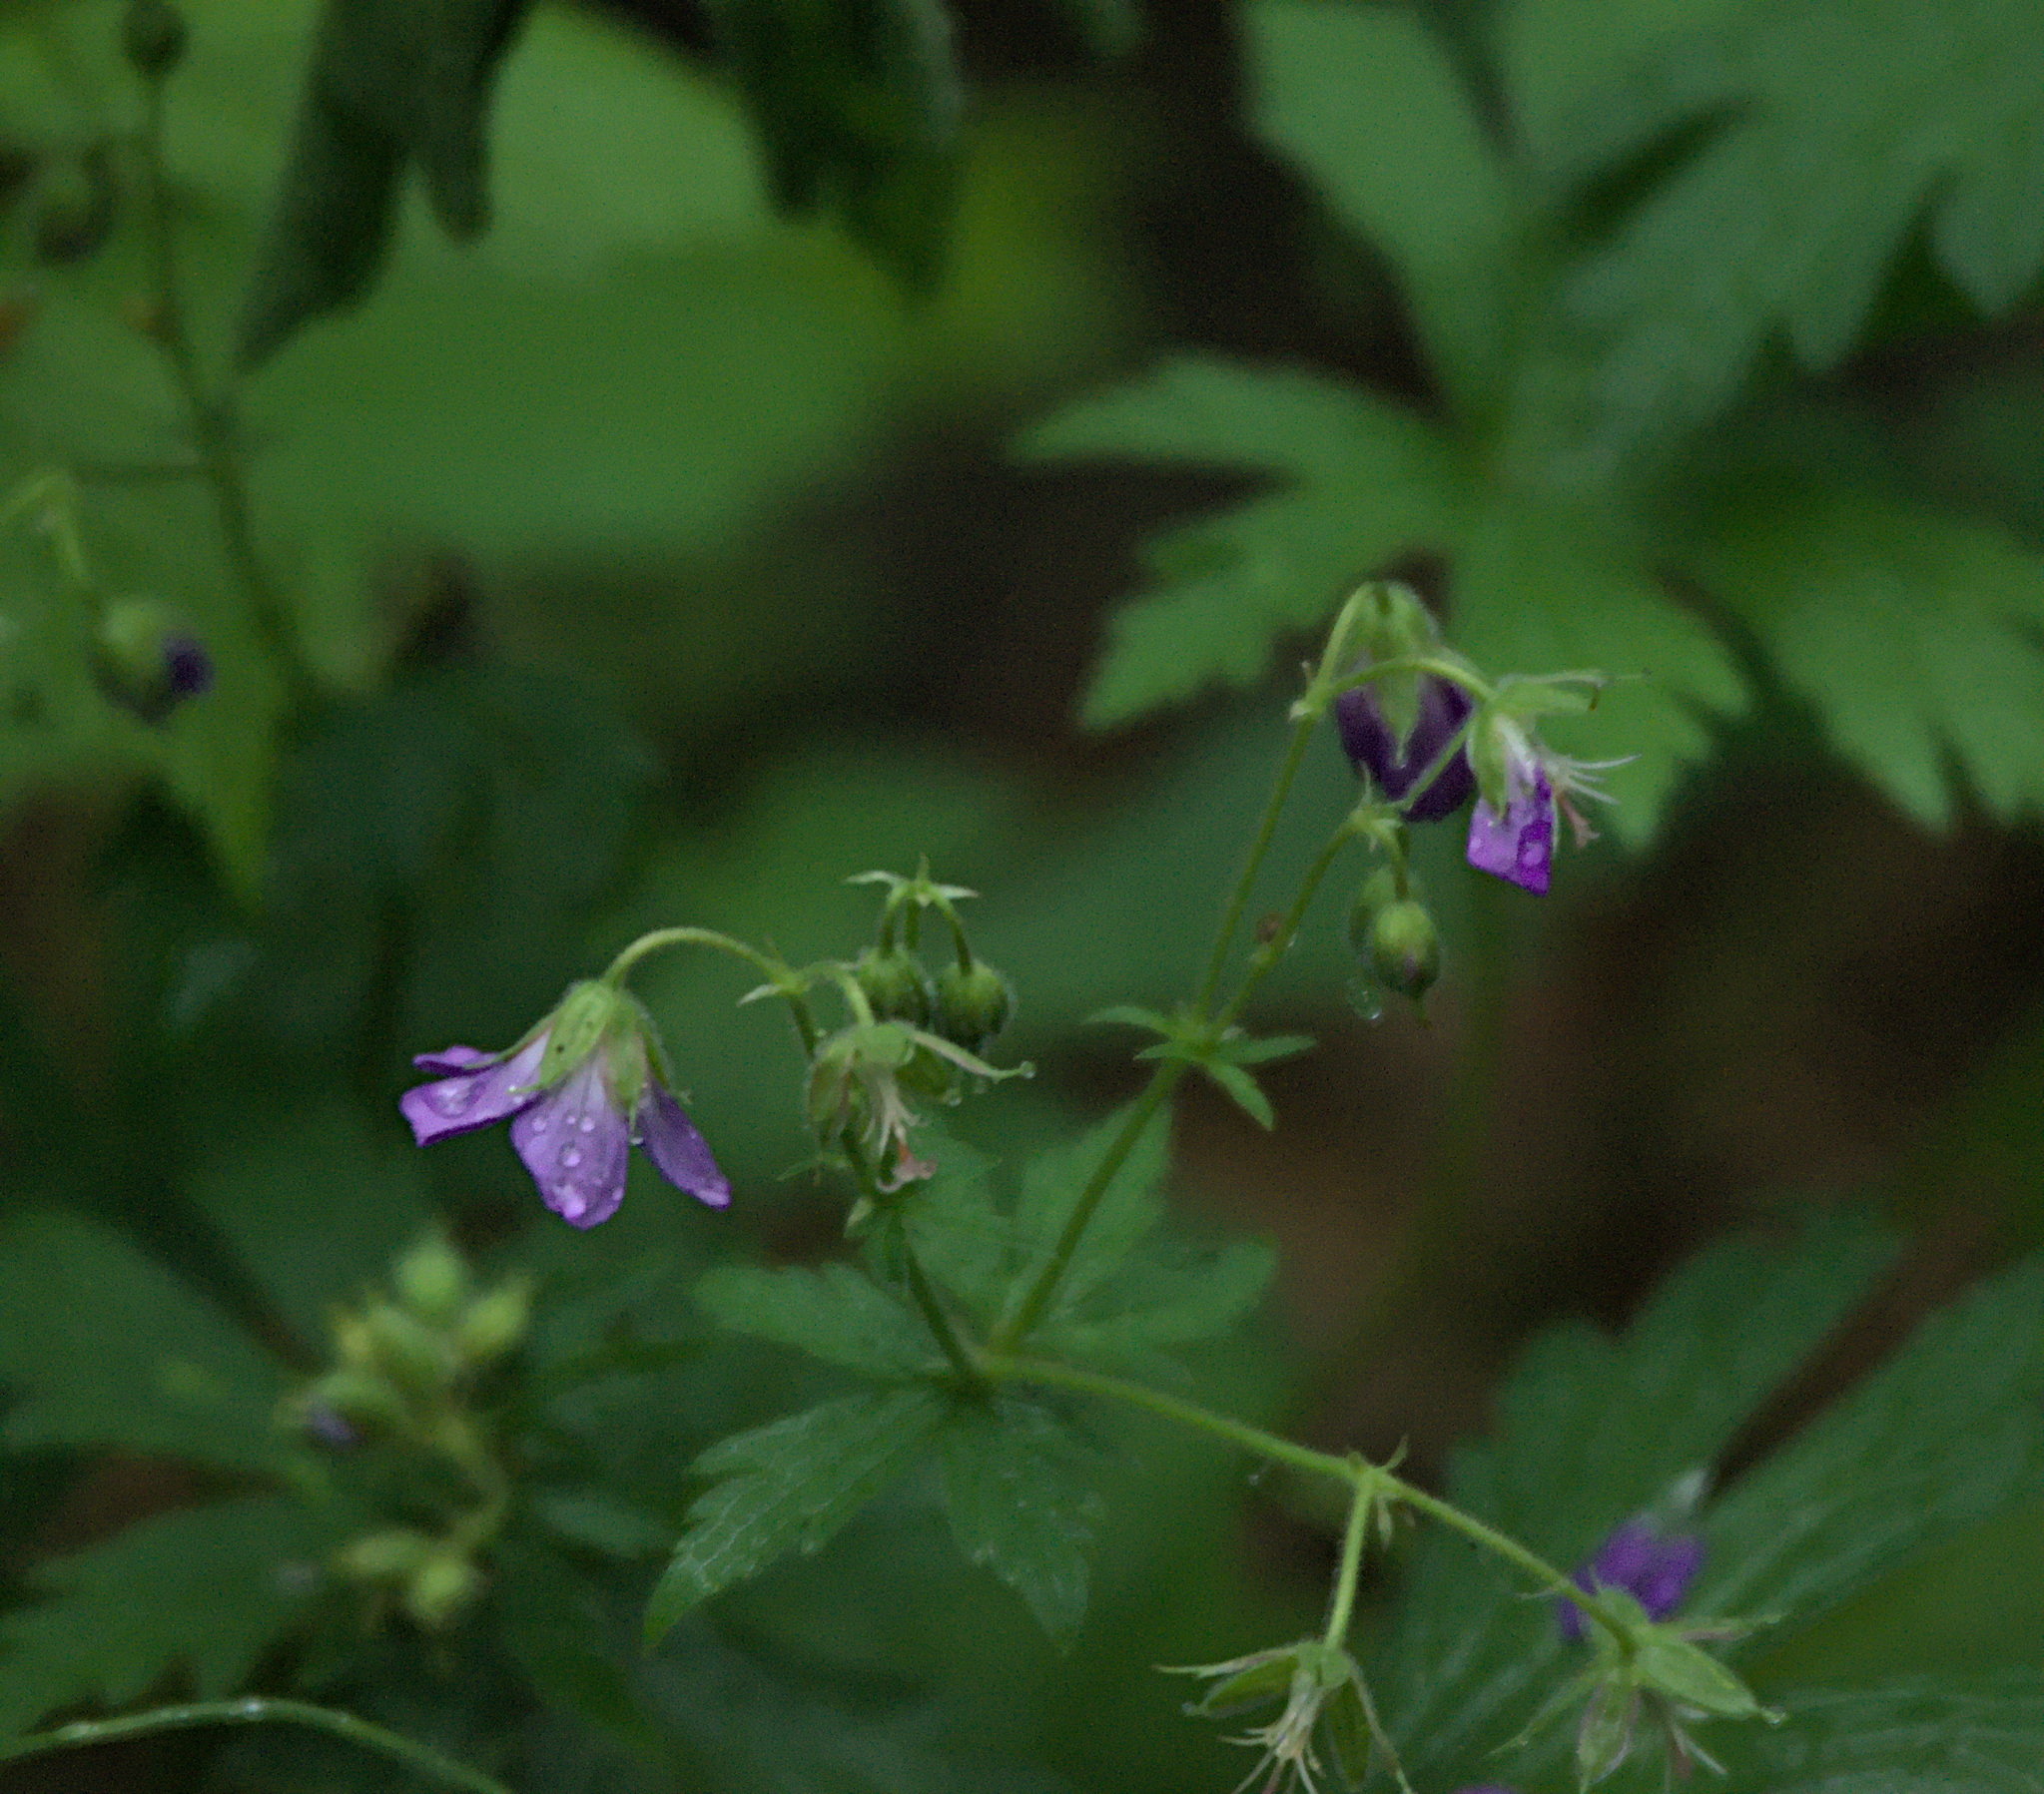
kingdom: Plantae
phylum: Tracheophyta
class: Magnoliopsida
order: Geraniales
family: Geraniaceae
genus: Geranium
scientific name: Geranium sylvaticum
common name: Wood crane's-bill
